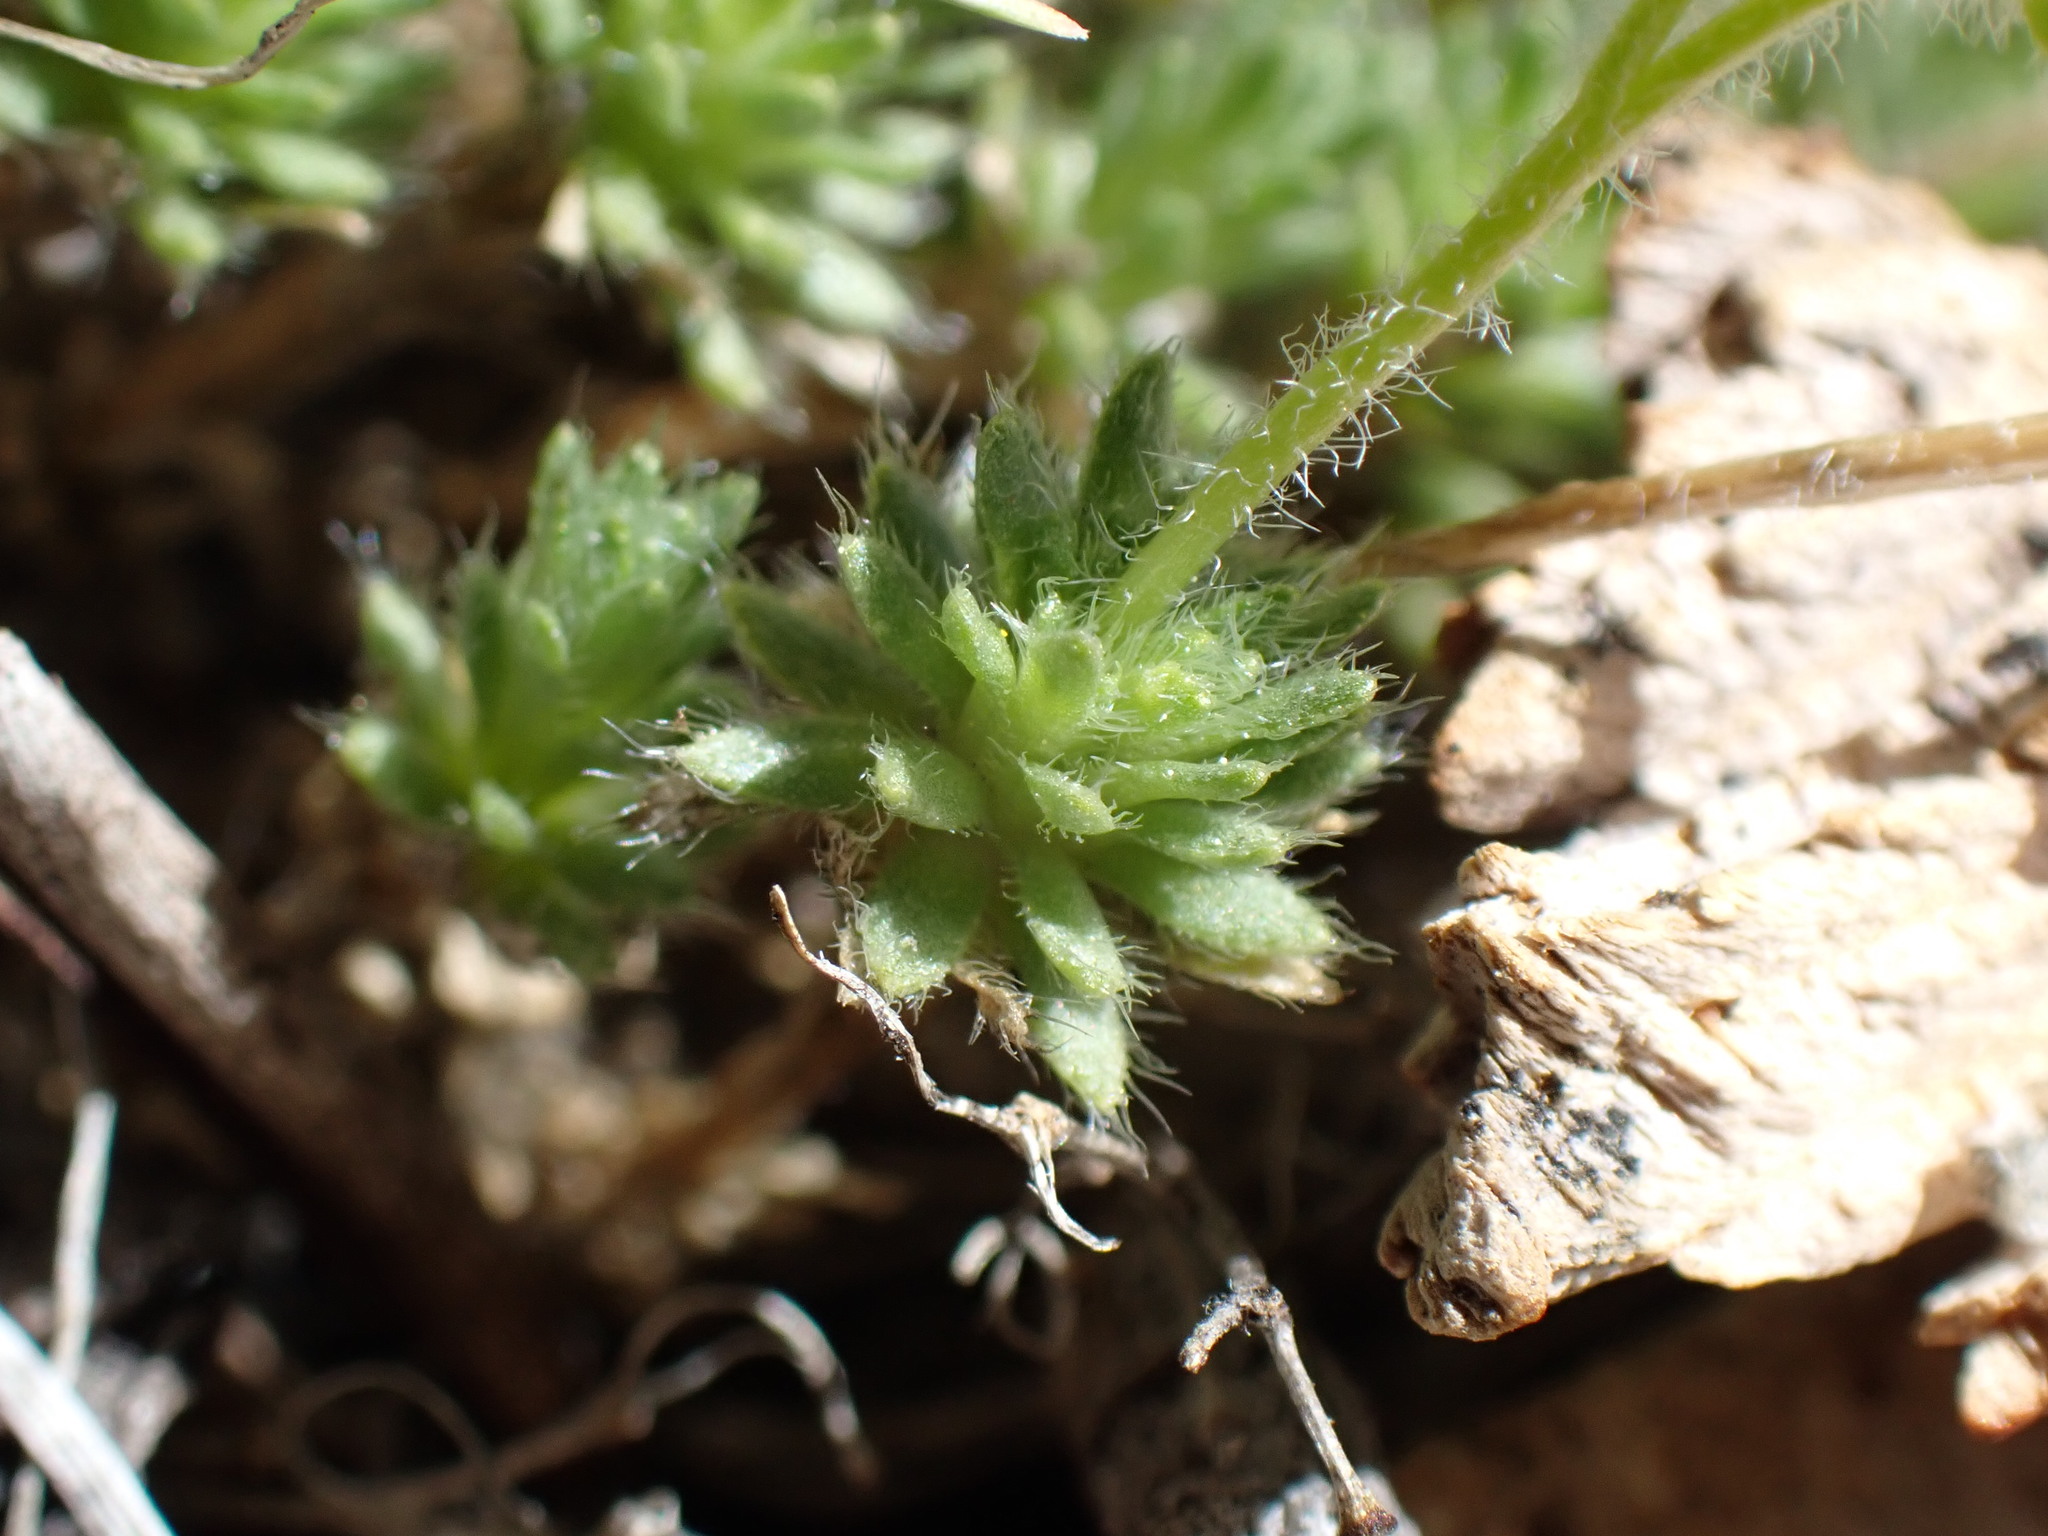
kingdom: Plantae
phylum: Tracheophyta
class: Magnoliopsida
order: Brassicales
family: Brassicaceae
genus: Draba
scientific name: Draba densifolia
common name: Nuttall's draba
